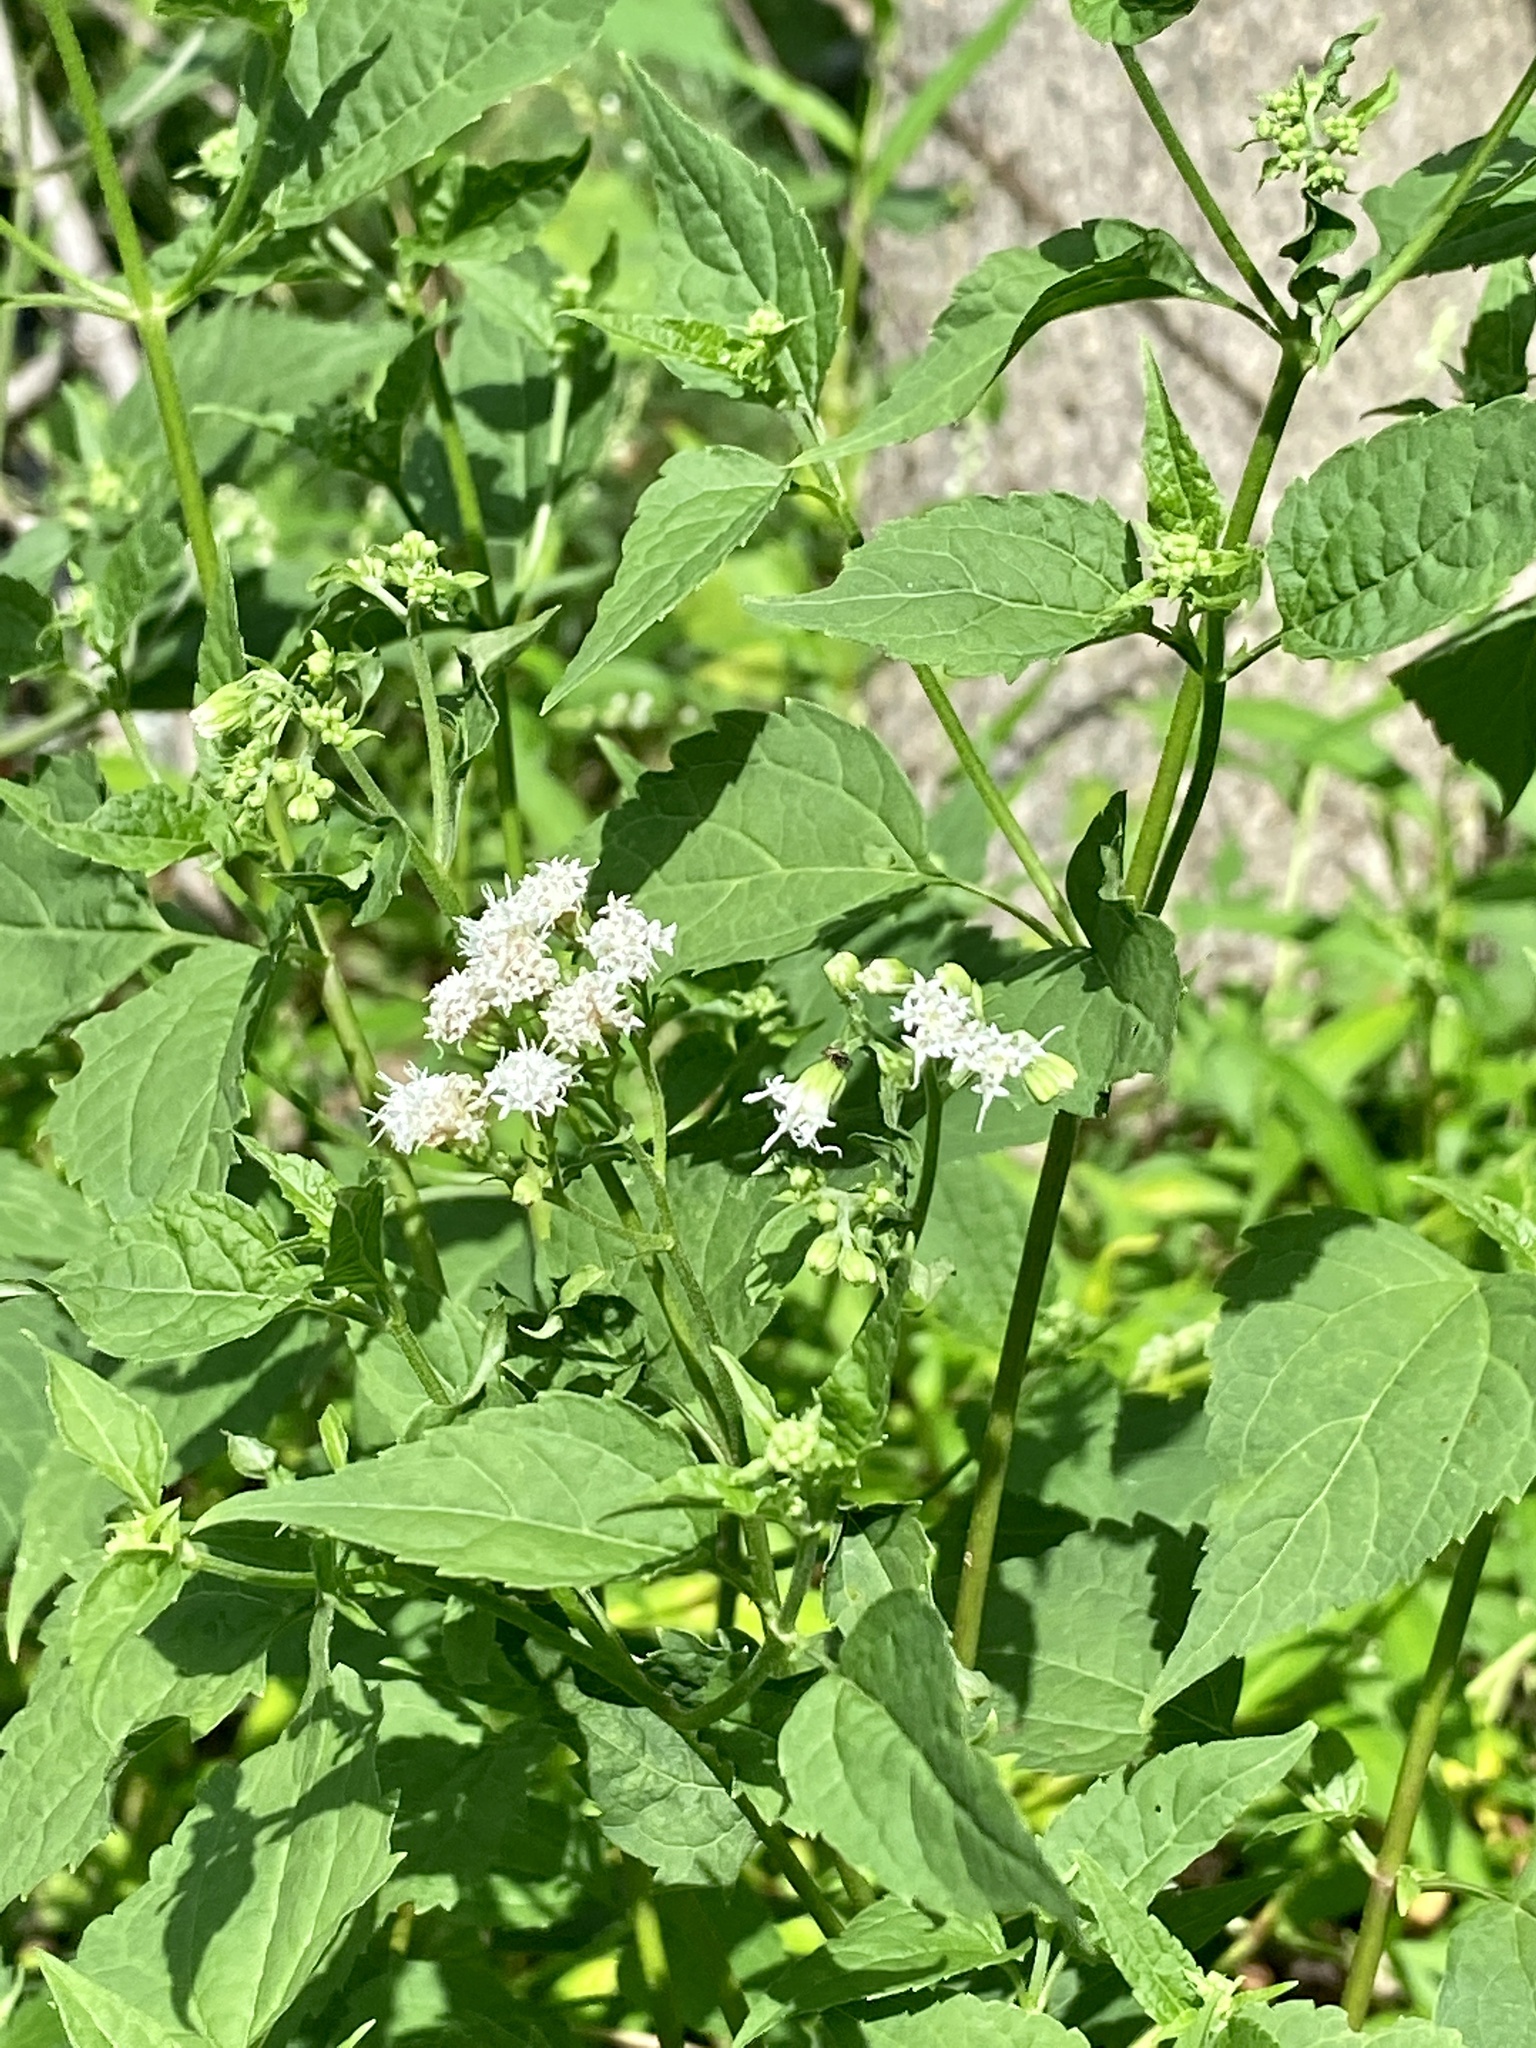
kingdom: Plantae
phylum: Tracheophyta
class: Magnoliopsida
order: Asterales
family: Asteraceae
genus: Ageratina
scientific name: Ageratina altissima
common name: White snakeroot
